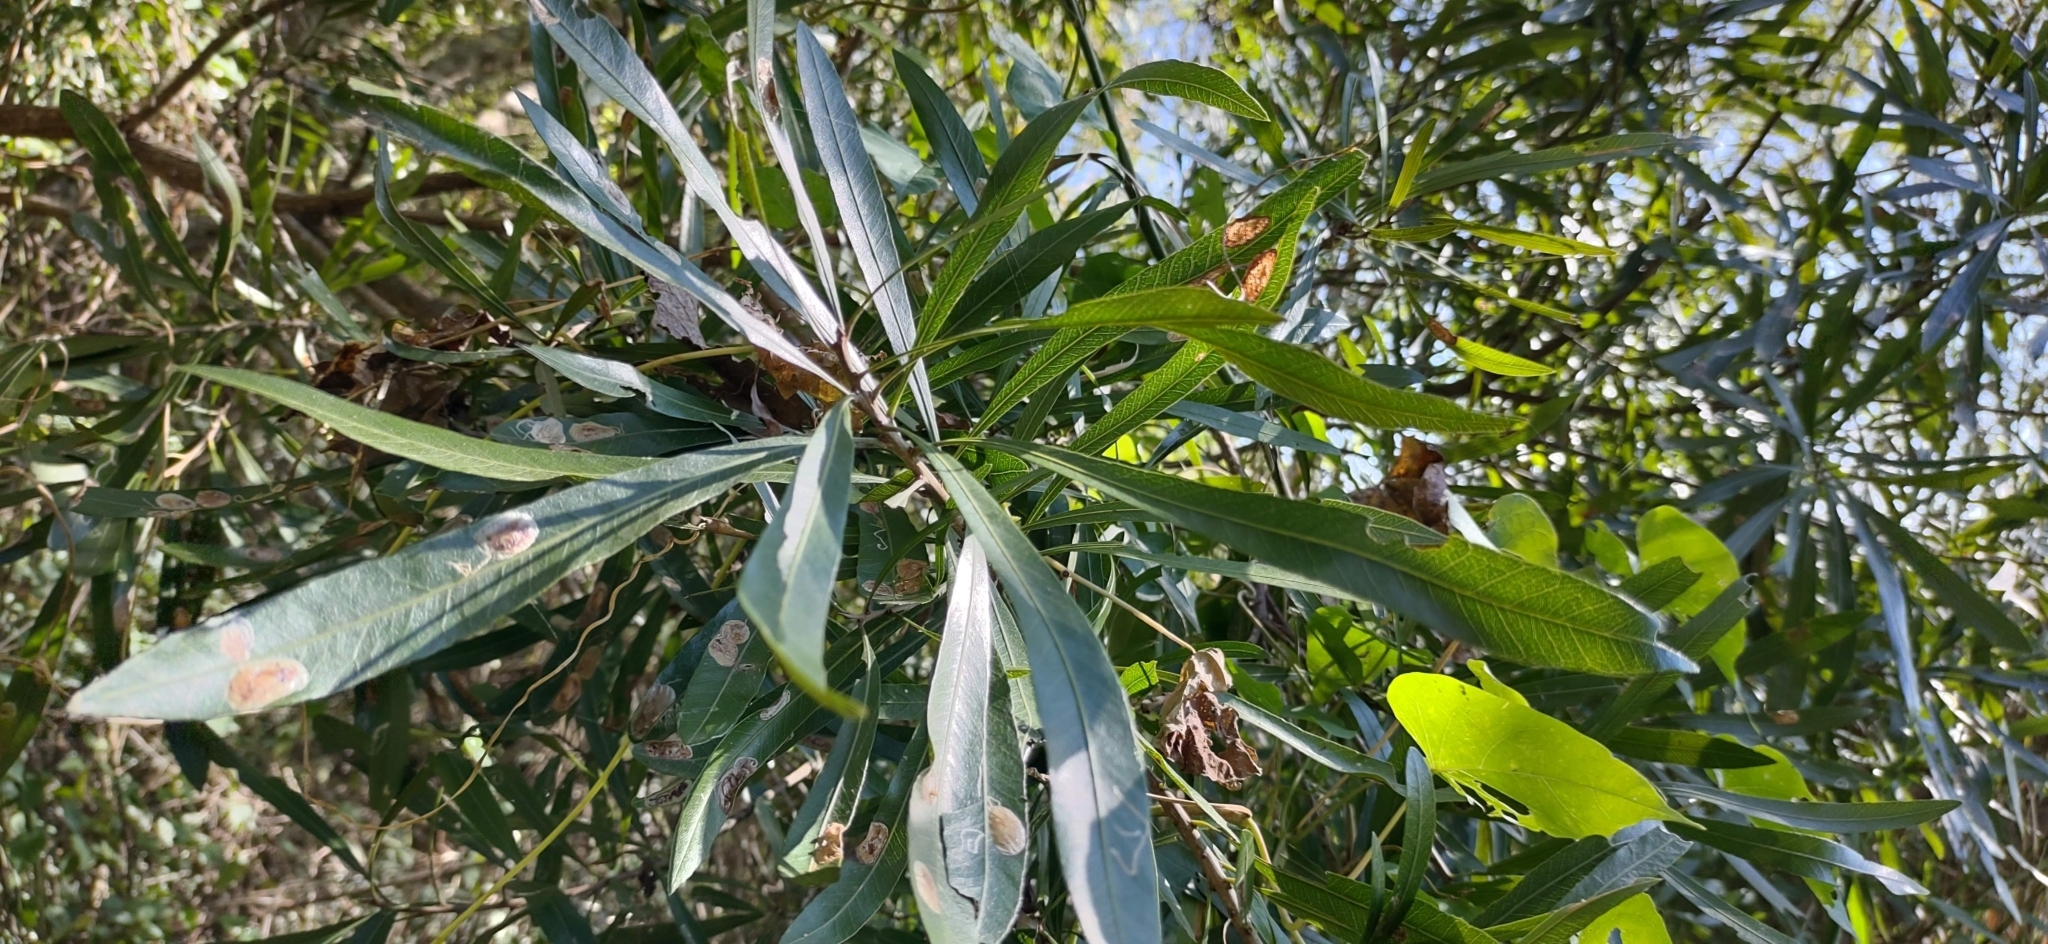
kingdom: Plantae
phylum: Tracheophyta
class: Magnoliopsida
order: Ericales
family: Sapotaceae
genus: Labatia
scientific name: Labatia salicifolia
